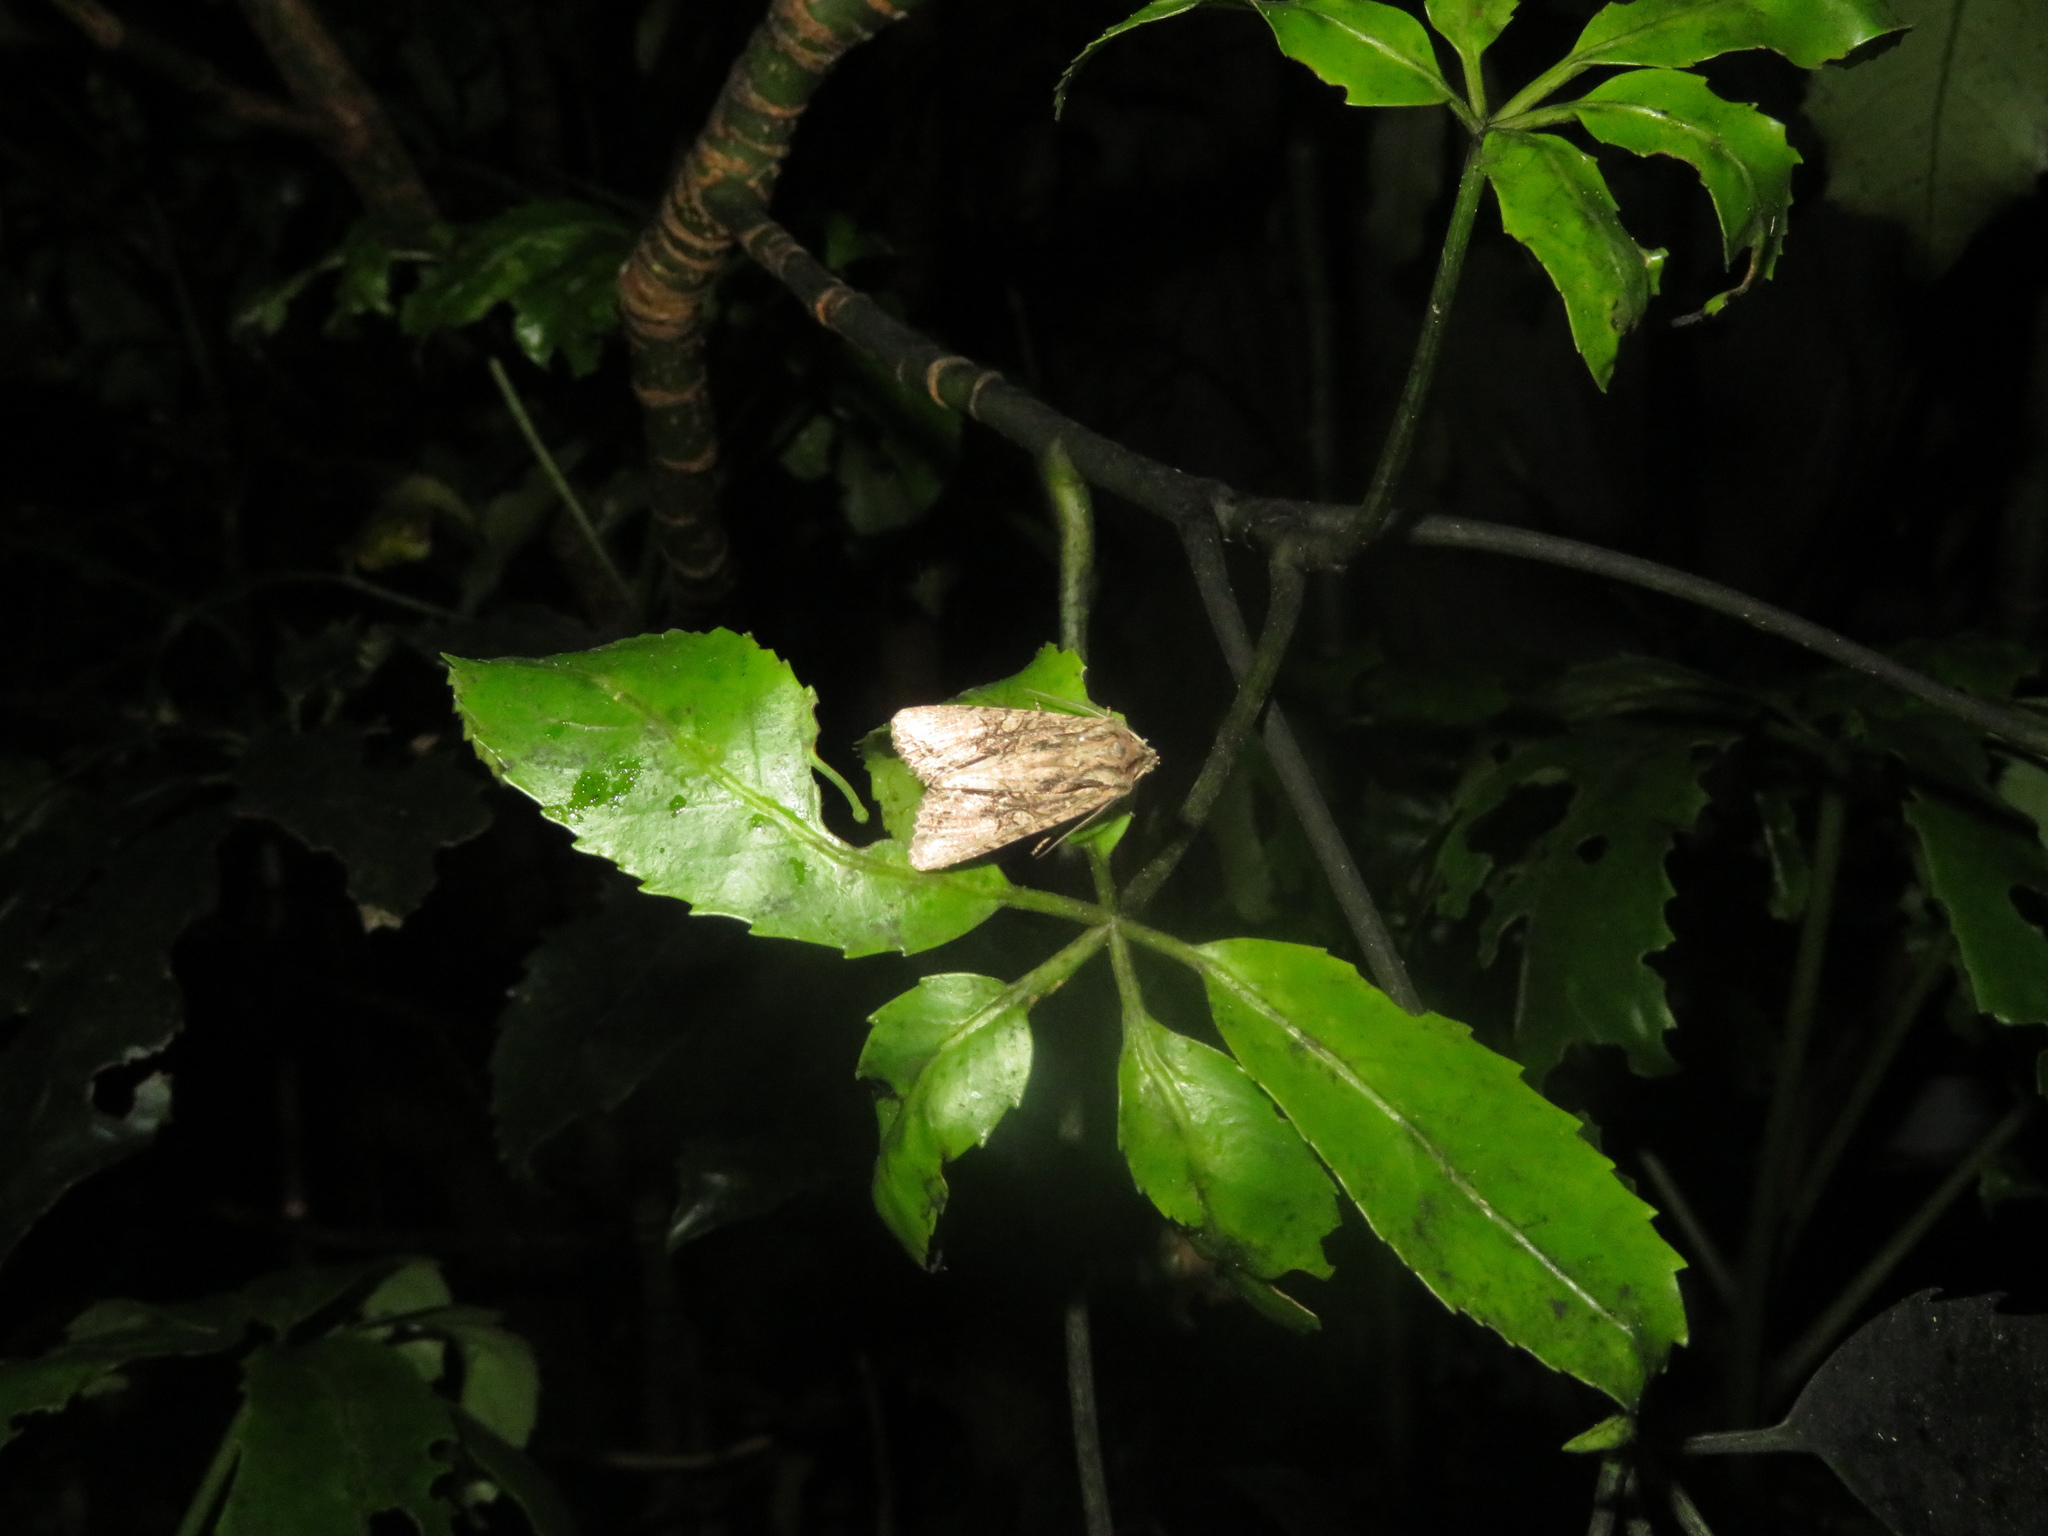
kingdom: Animalia
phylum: Arthropoda
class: Insecta
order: Lepidoptera
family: Noctuidae
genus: Ichneutica
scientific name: Ichneutica mutans
